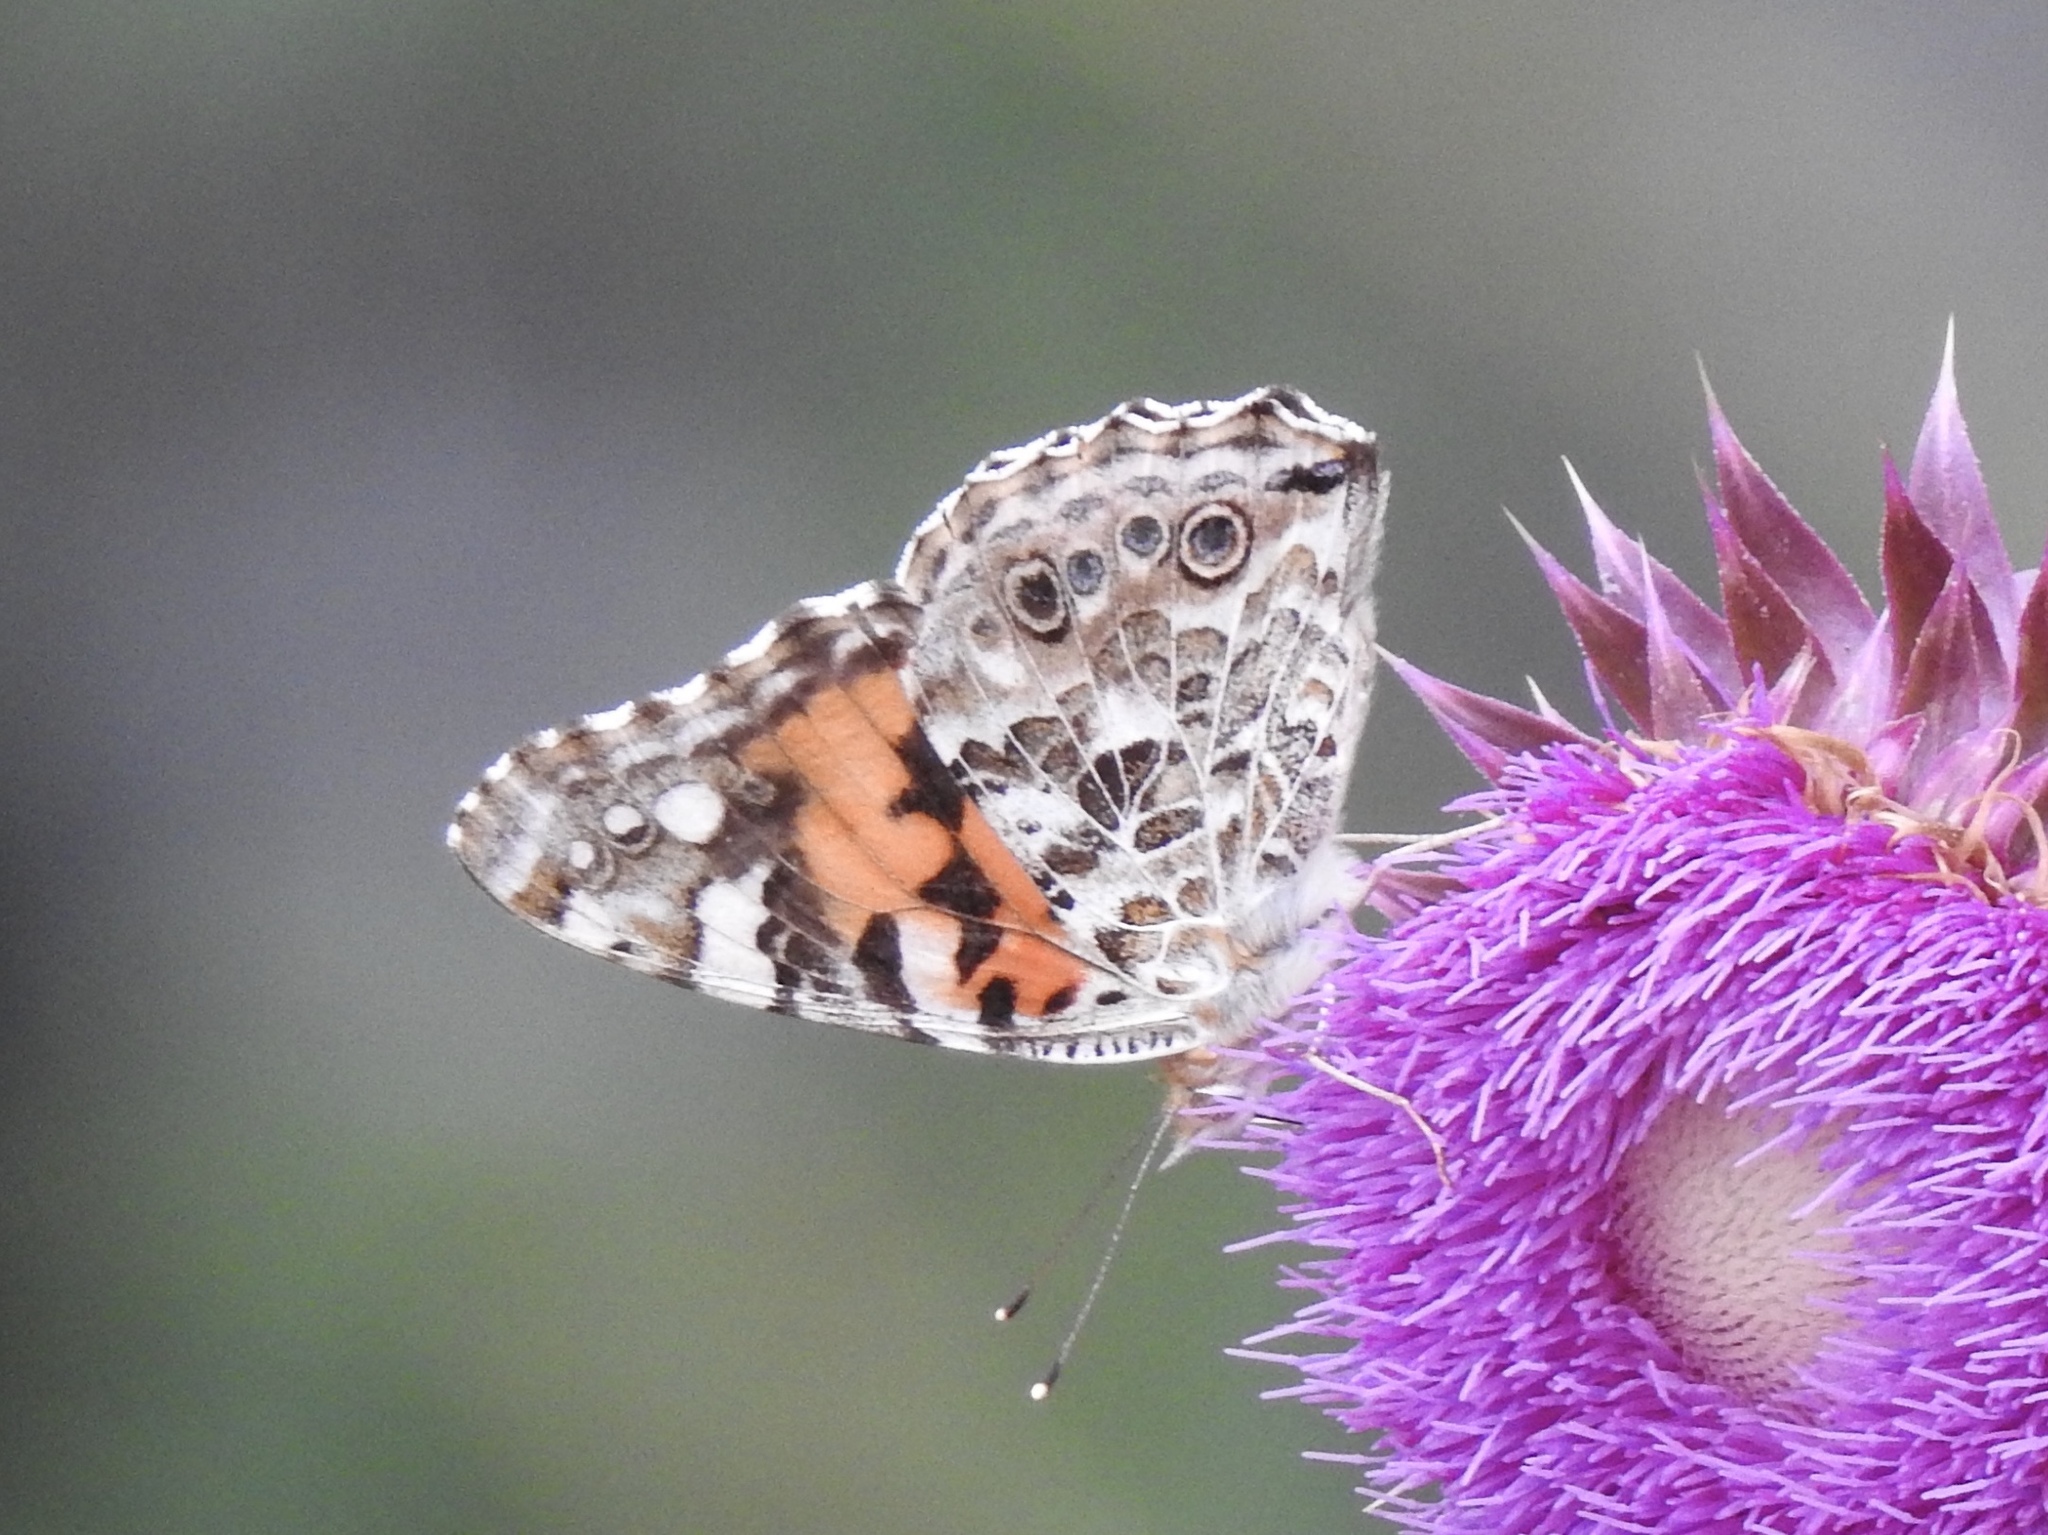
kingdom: Animalia
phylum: Arthropoda
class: Insecta
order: Lepidoptera
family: Nymphalidae
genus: Vanessa
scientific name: Vanessa cardui
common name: Painted lady
